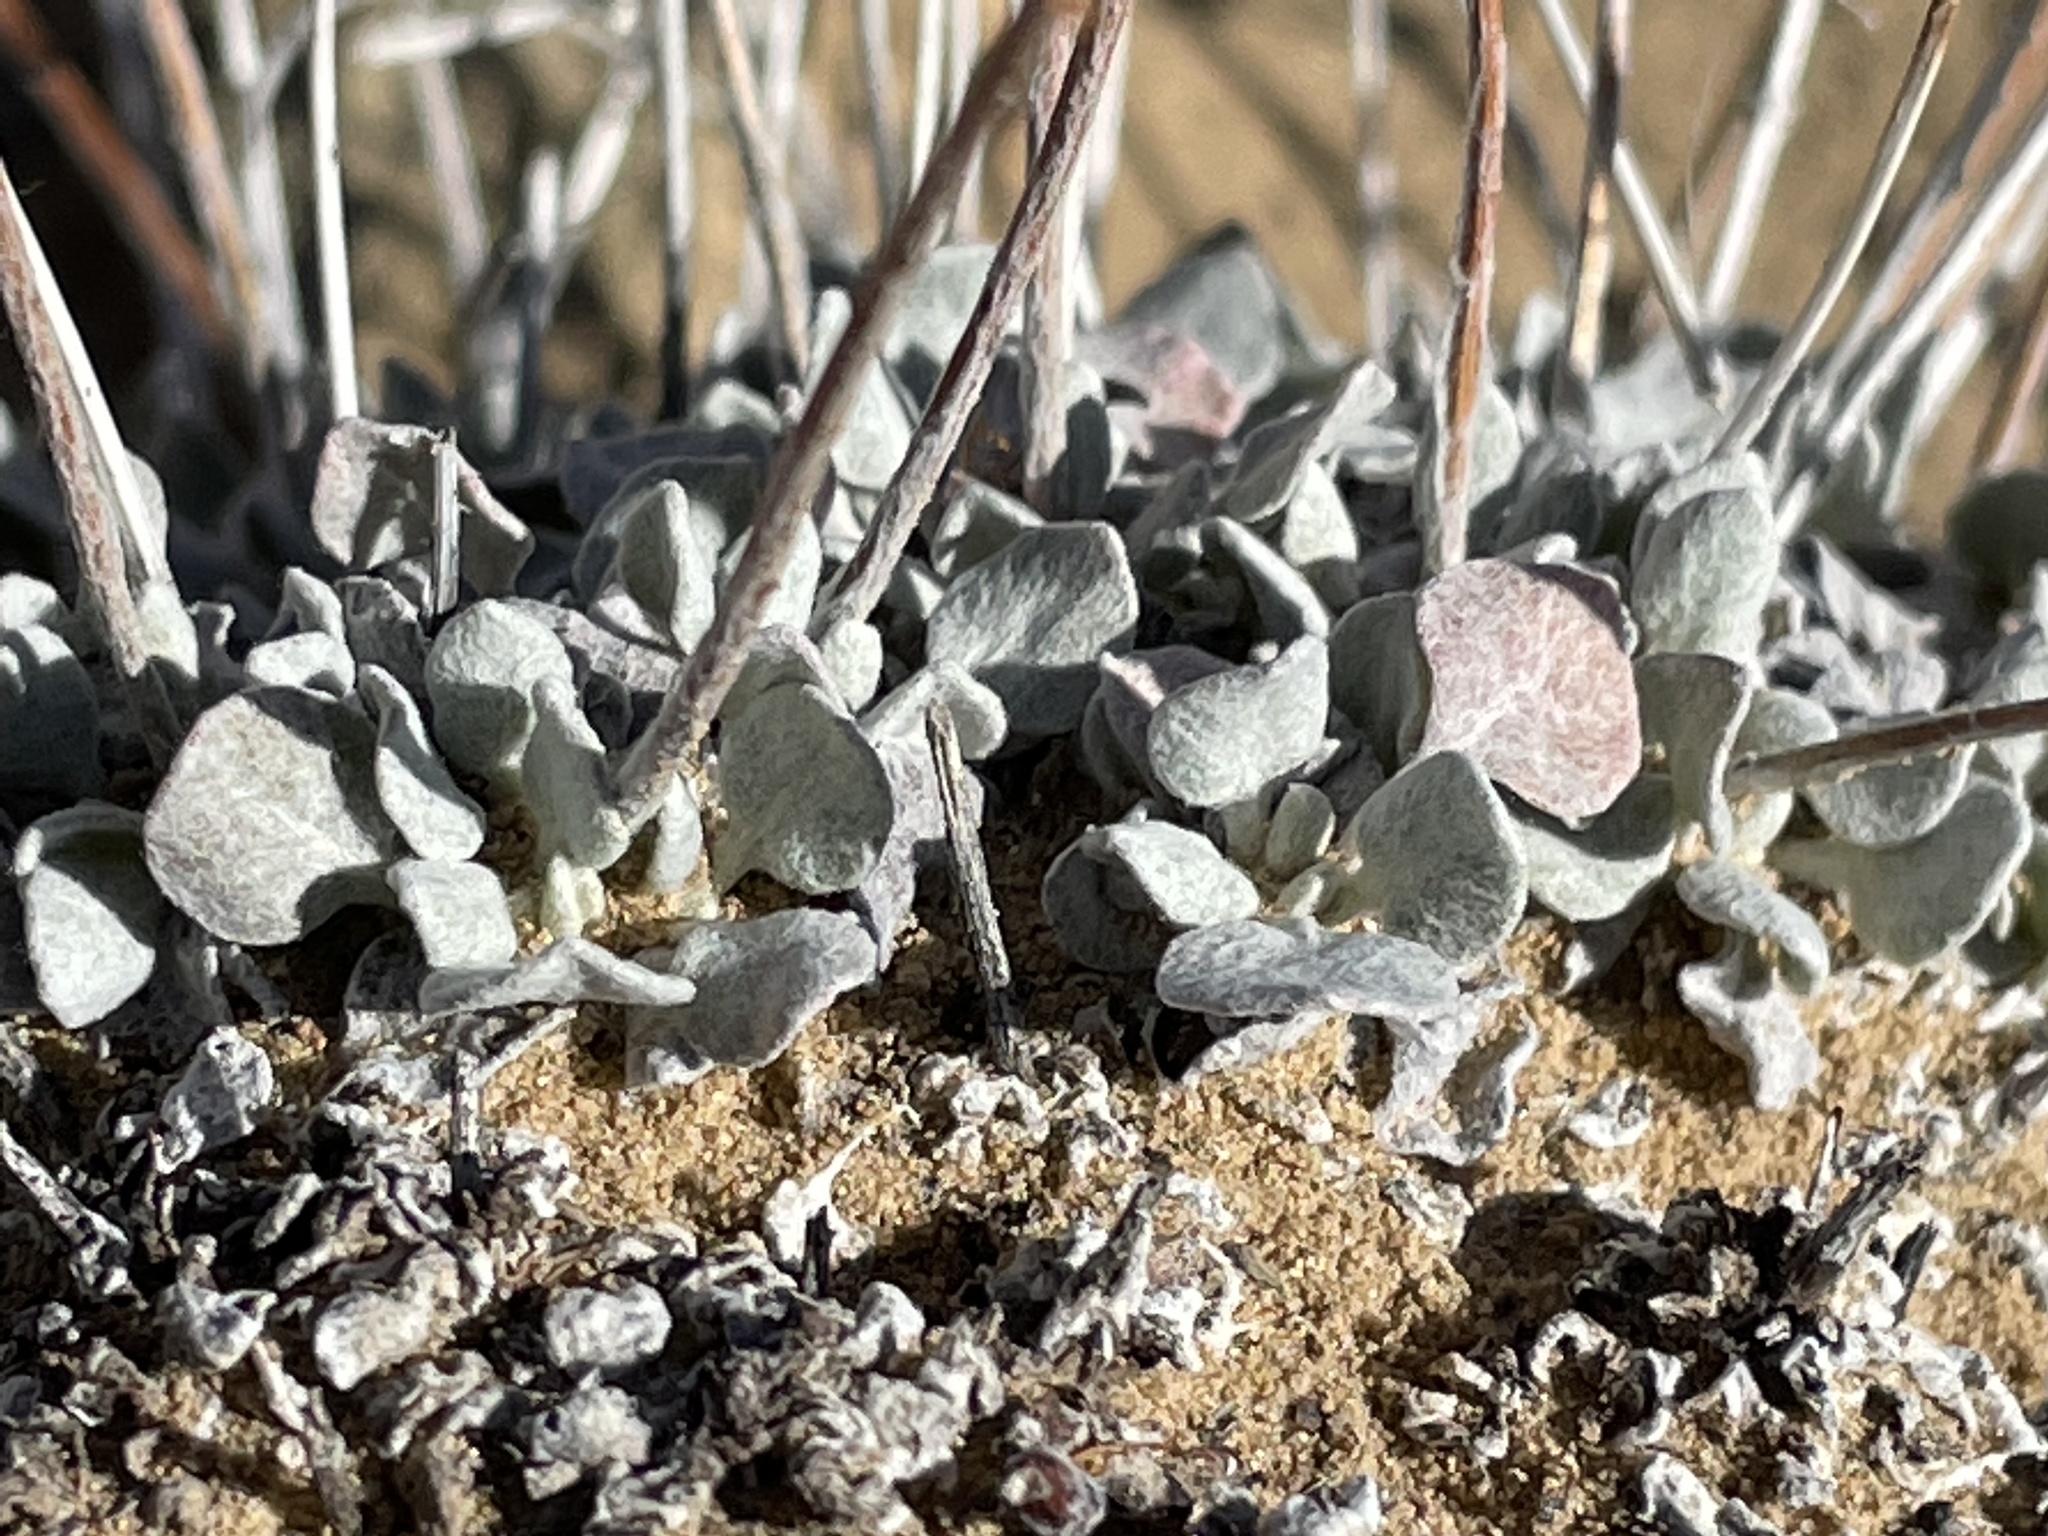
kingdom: Plantae
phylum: Tracheophyta
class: Magnoliopsida
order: Caryophyllales
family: Polygonaceae
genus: Eriogonum
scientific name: Eriogonum ovalifolium
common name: Cushion buckwheat
